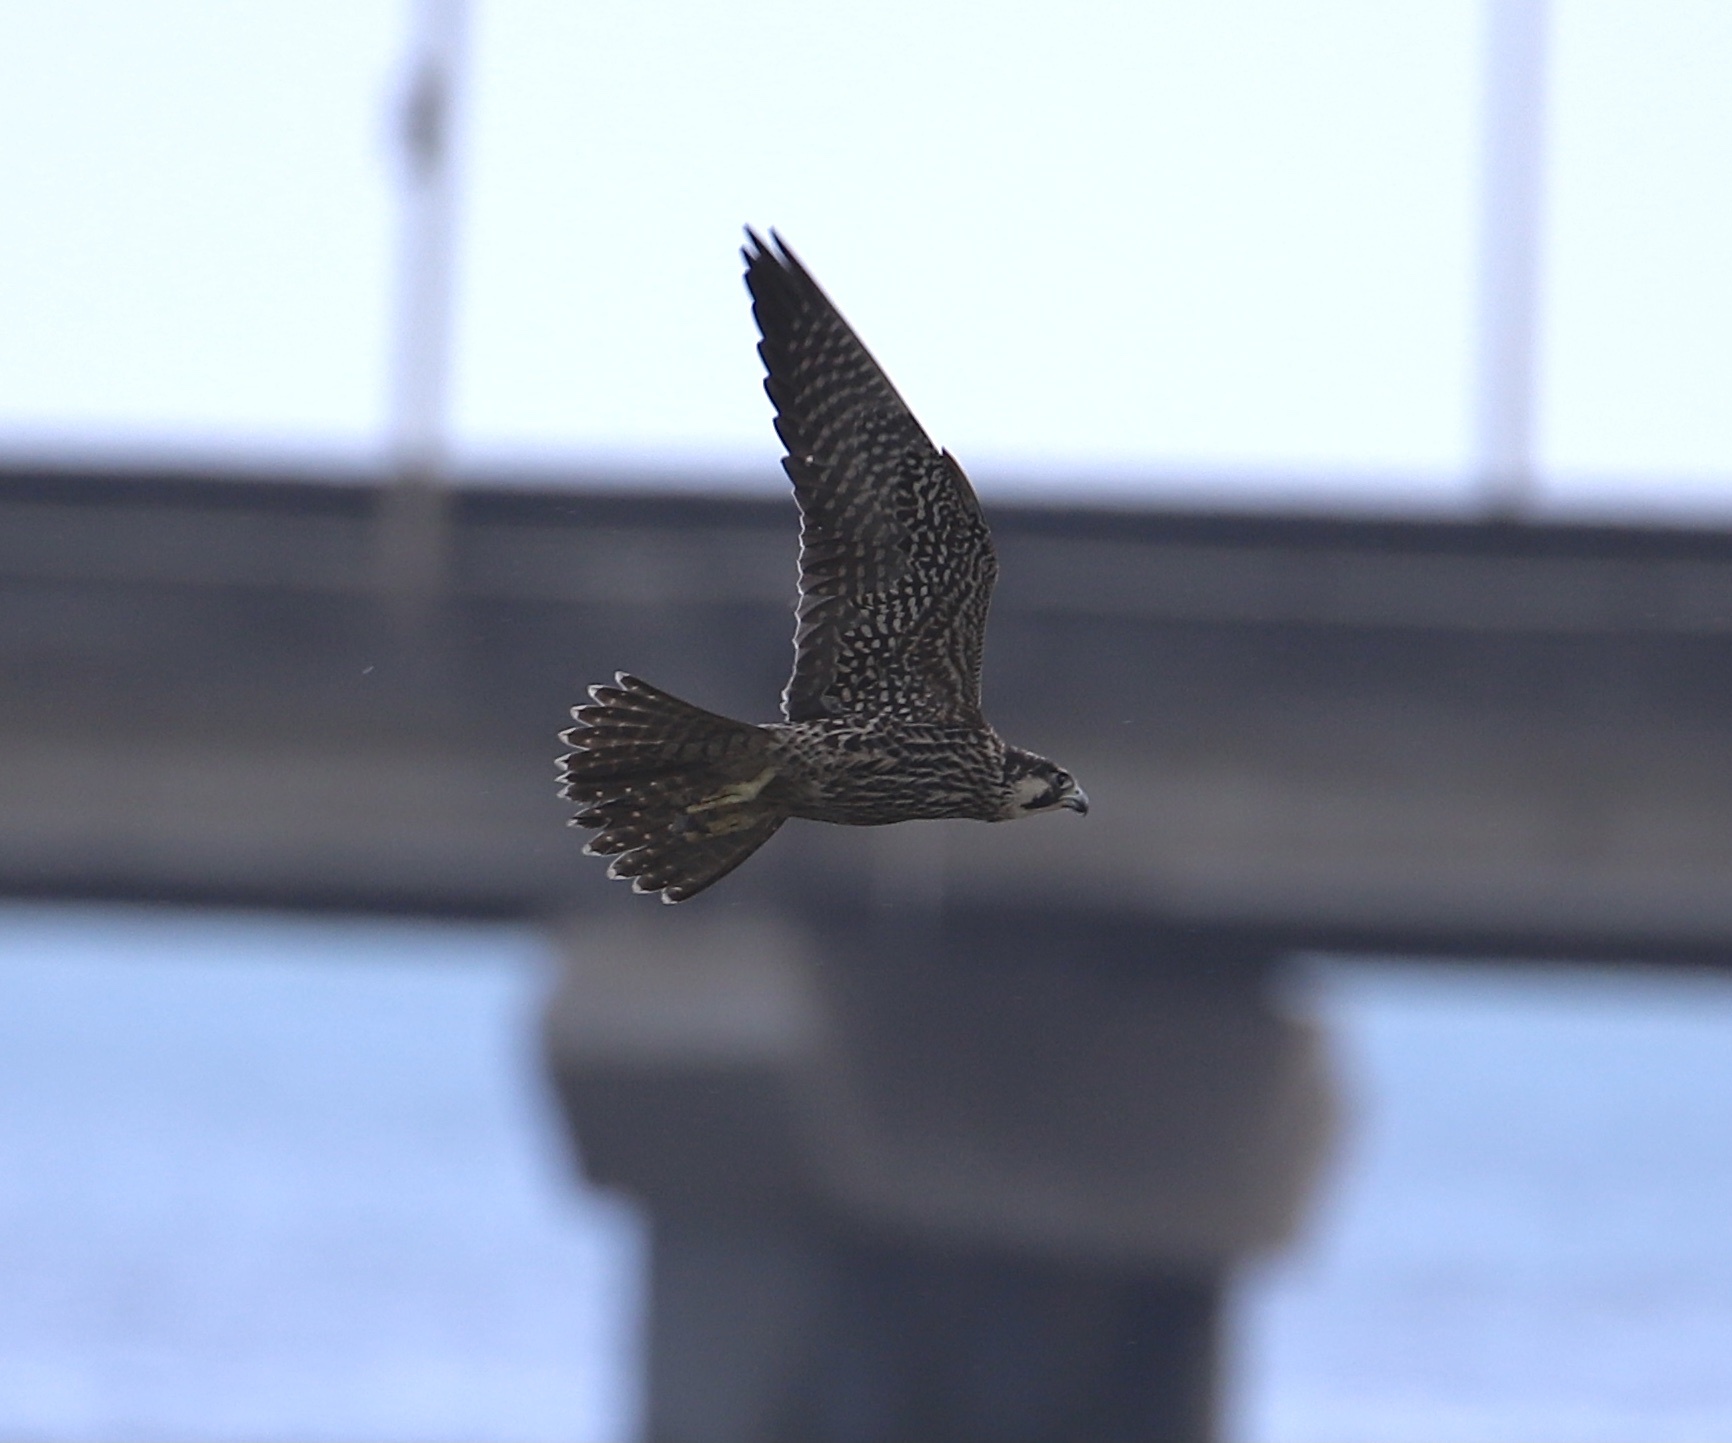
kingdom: Animalia
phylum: Chordata
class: Aves
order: Falconiformes
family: Falconidae
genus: Falco
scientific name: Falco peregrinus
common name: Peregrine falcon
